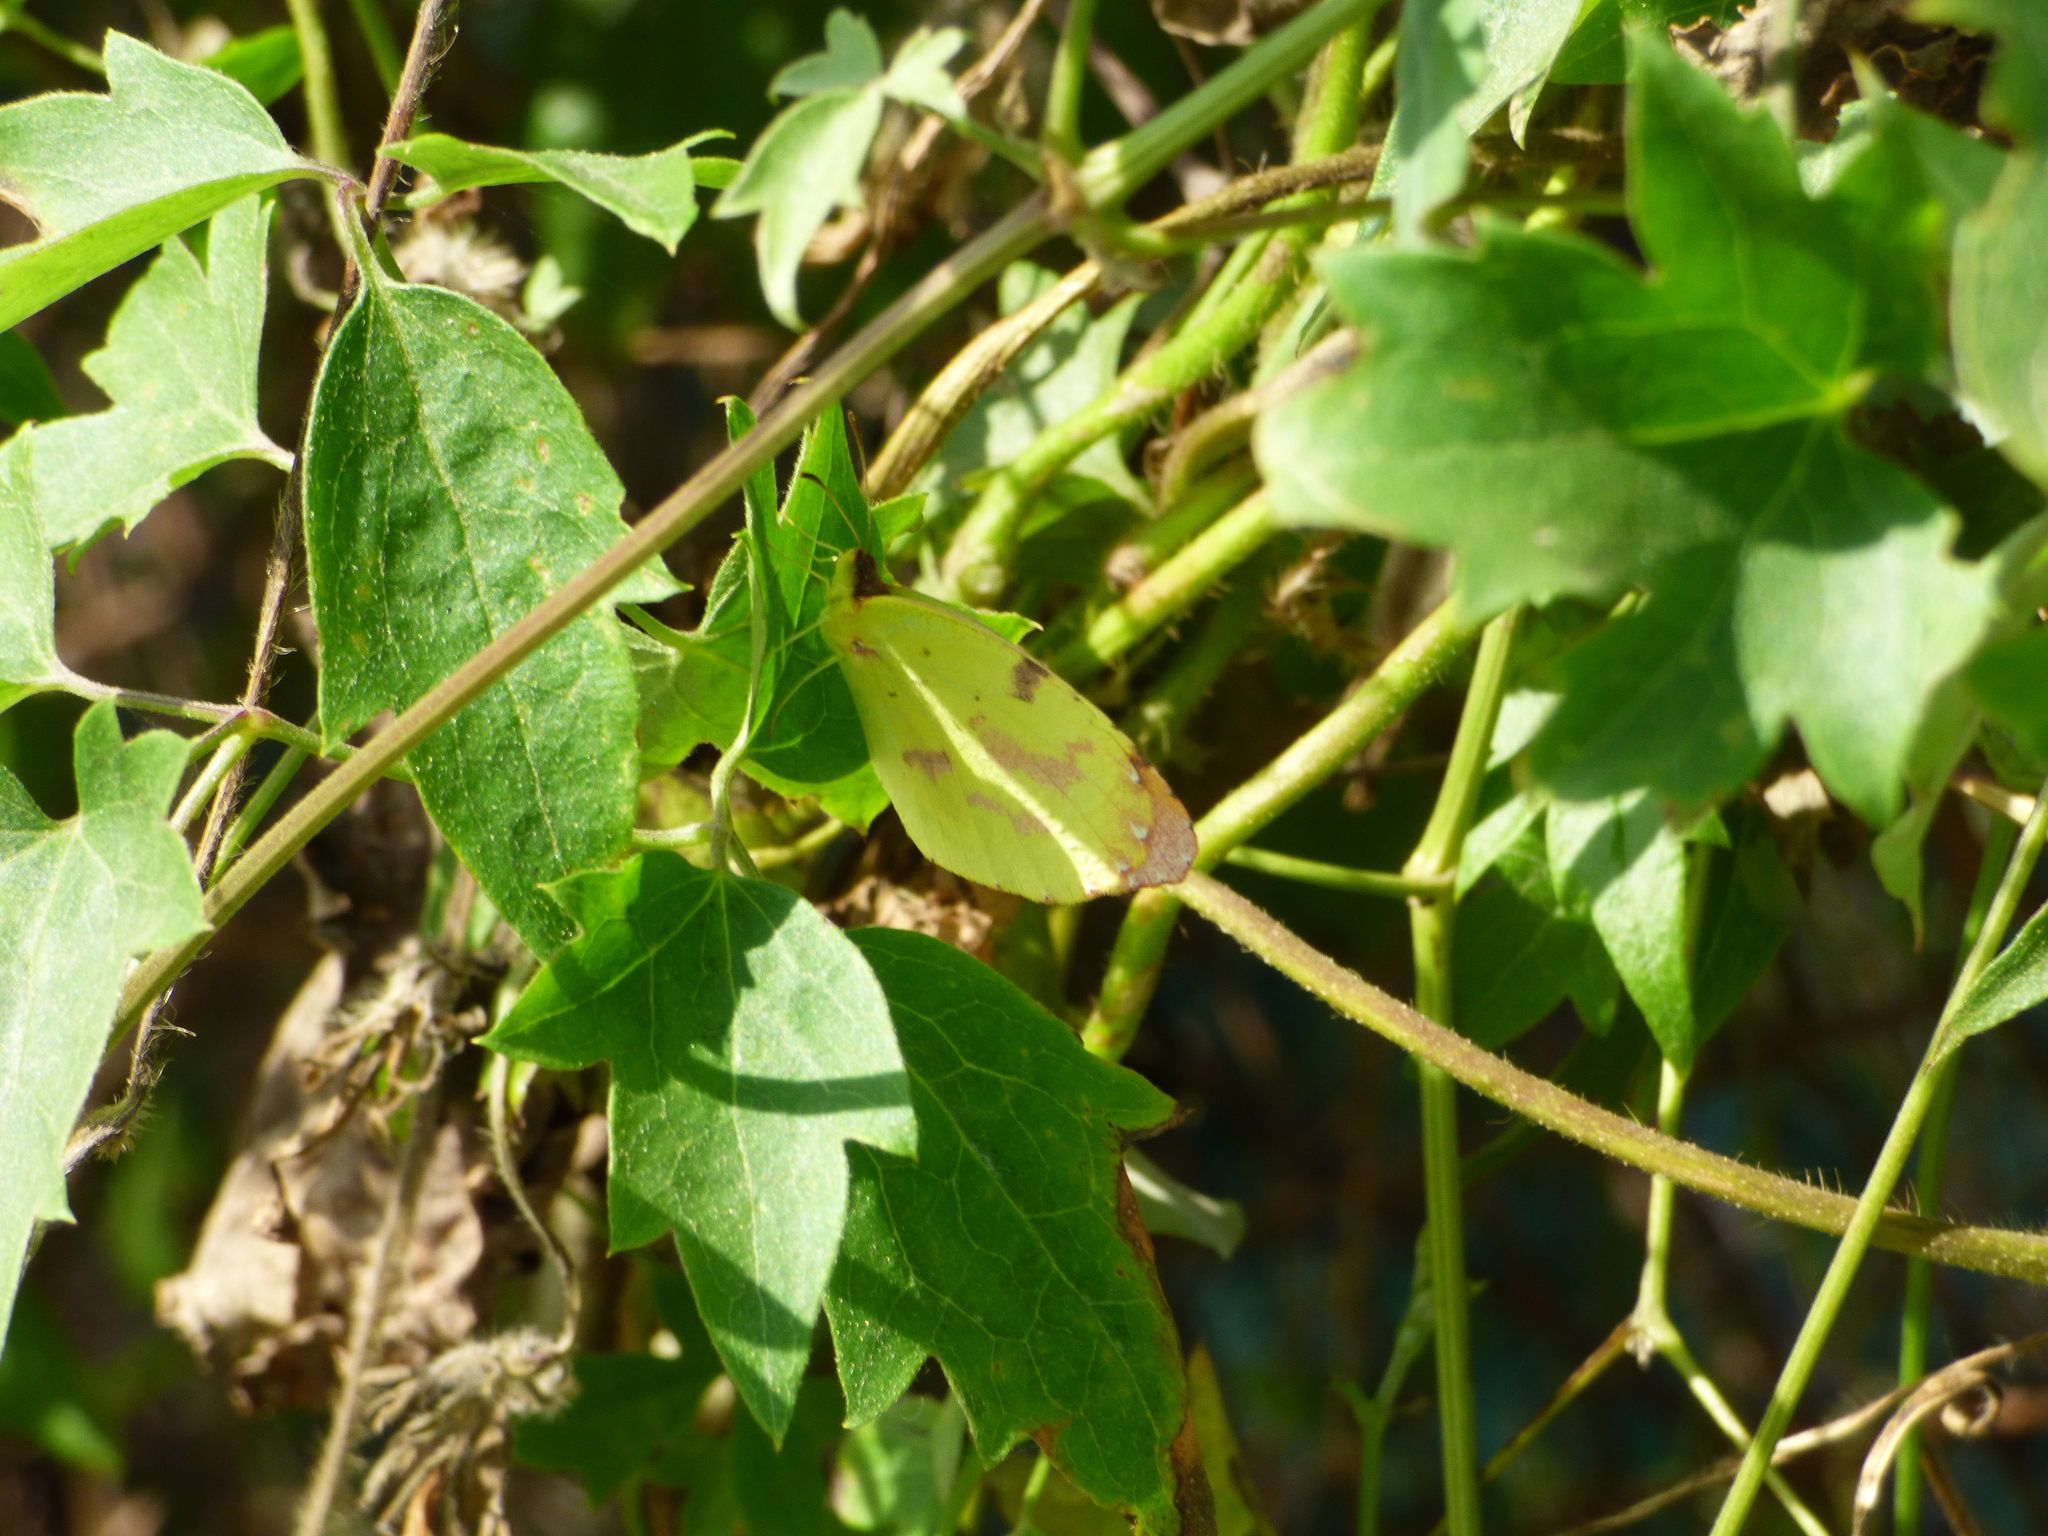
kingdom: Animalia
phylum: Arthropoda
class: Insecta
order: Lepidoptera
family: Pieridae
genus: Teriocolias
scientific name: Teriocolias
